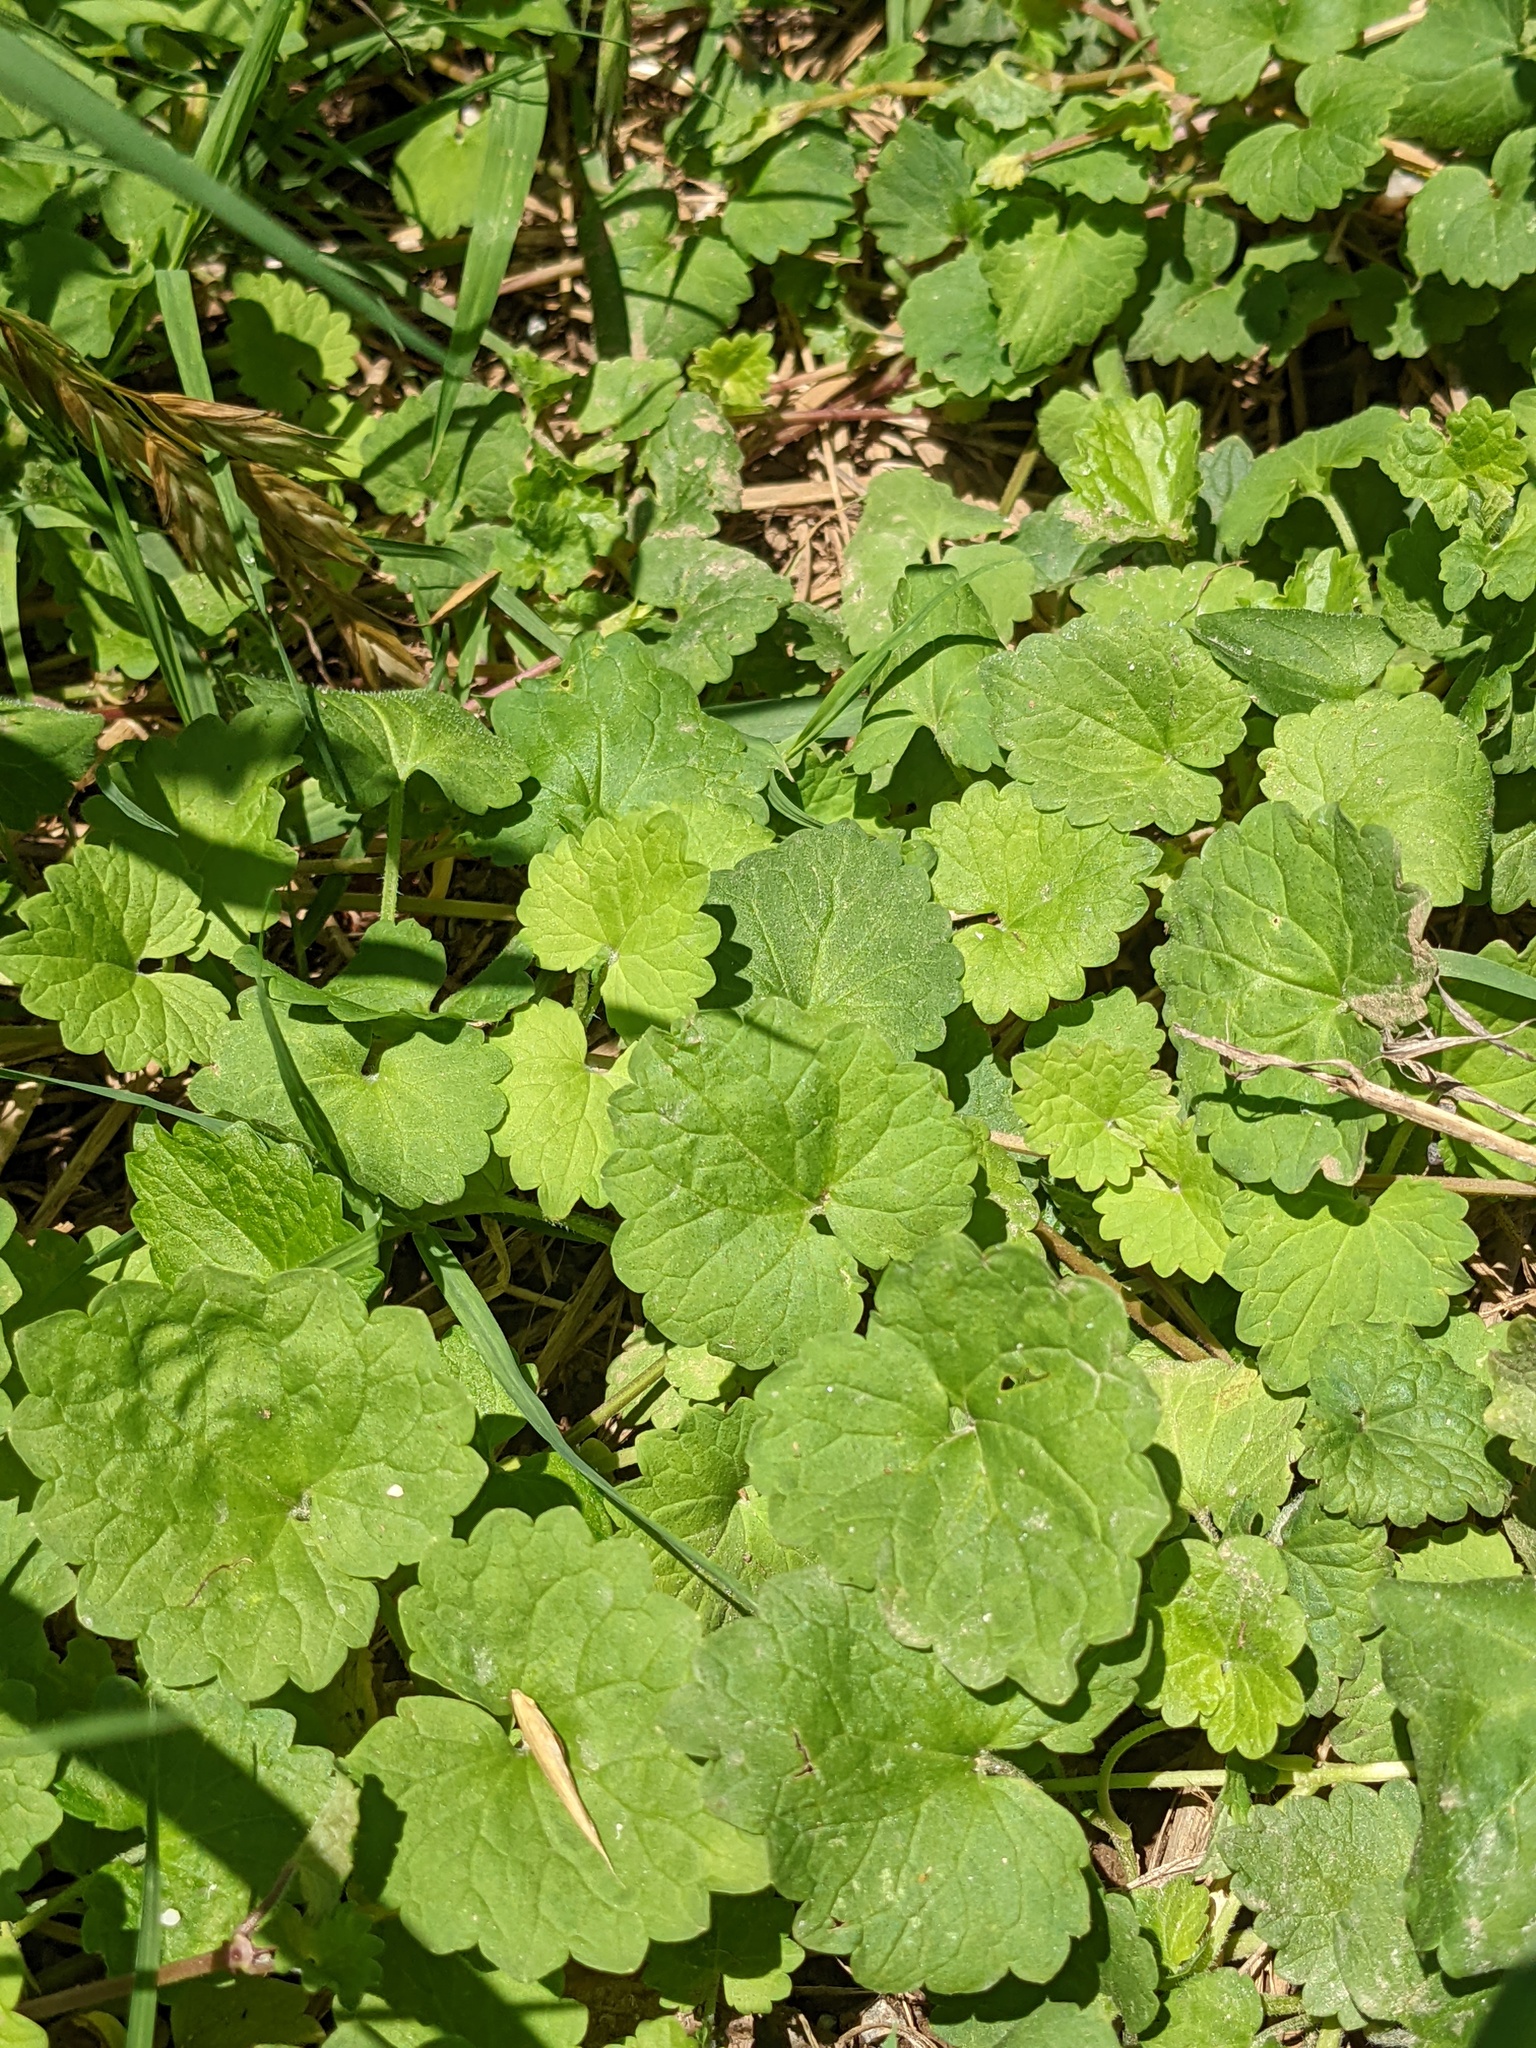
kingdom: Plantae
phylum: Tracheophyta
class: Magnoliopsida
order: Lamiales
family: Lamiaceae
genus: Glechoma
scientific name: Glechoma hederacea
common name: Ground ivy
